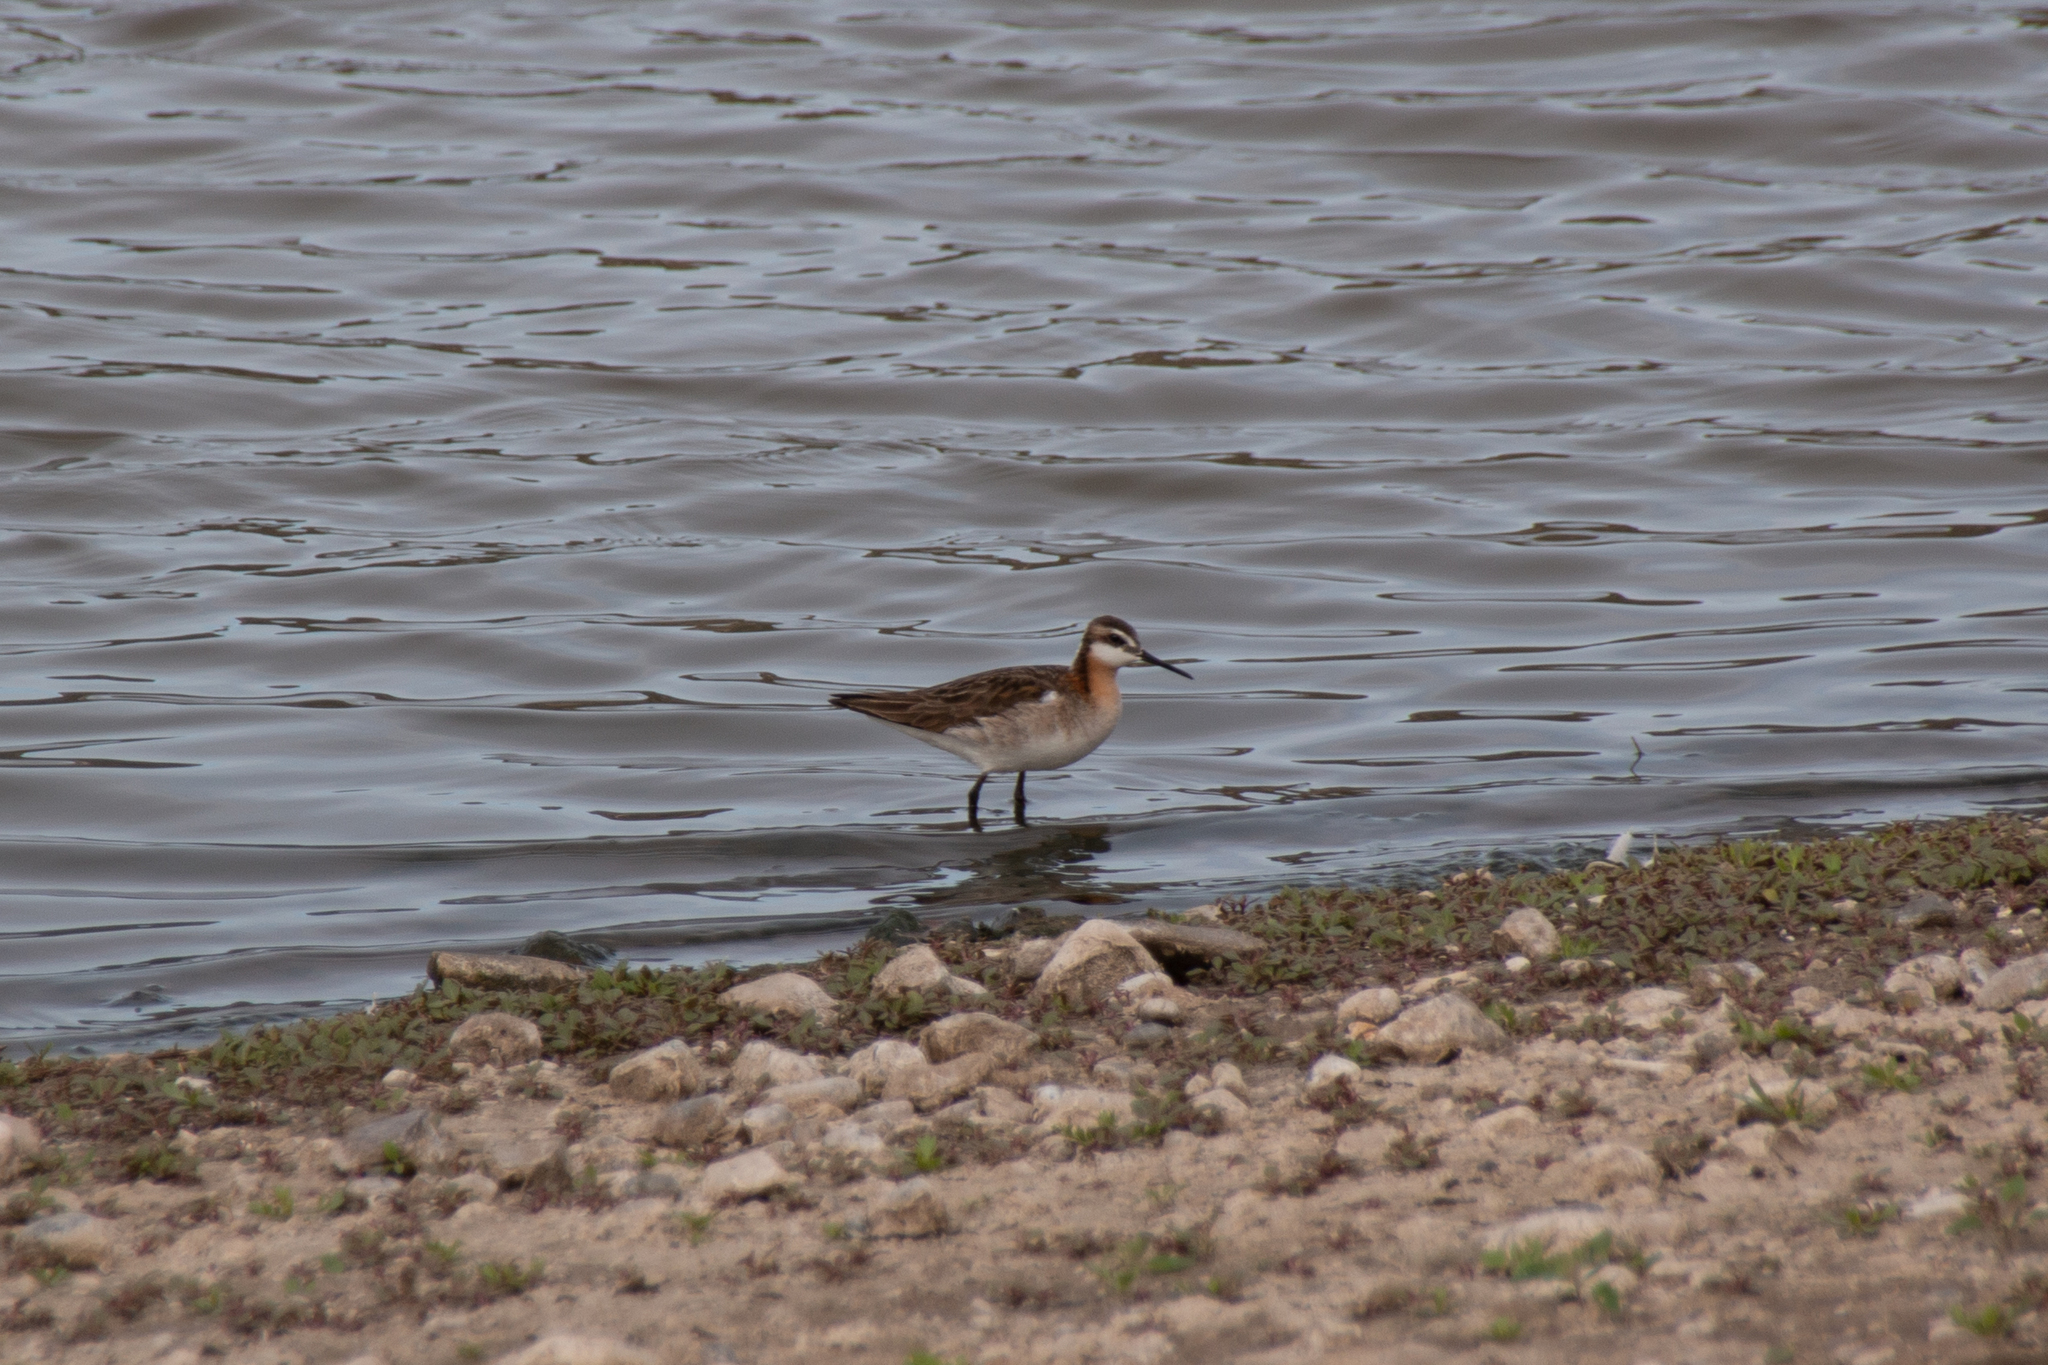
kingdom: Animalia
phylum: Chordata
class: Aves
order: Charadriiformes
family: Scolopacidae
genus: Phalaropus
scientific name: Phalaropus tricolor
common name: Wilson's phalarope
